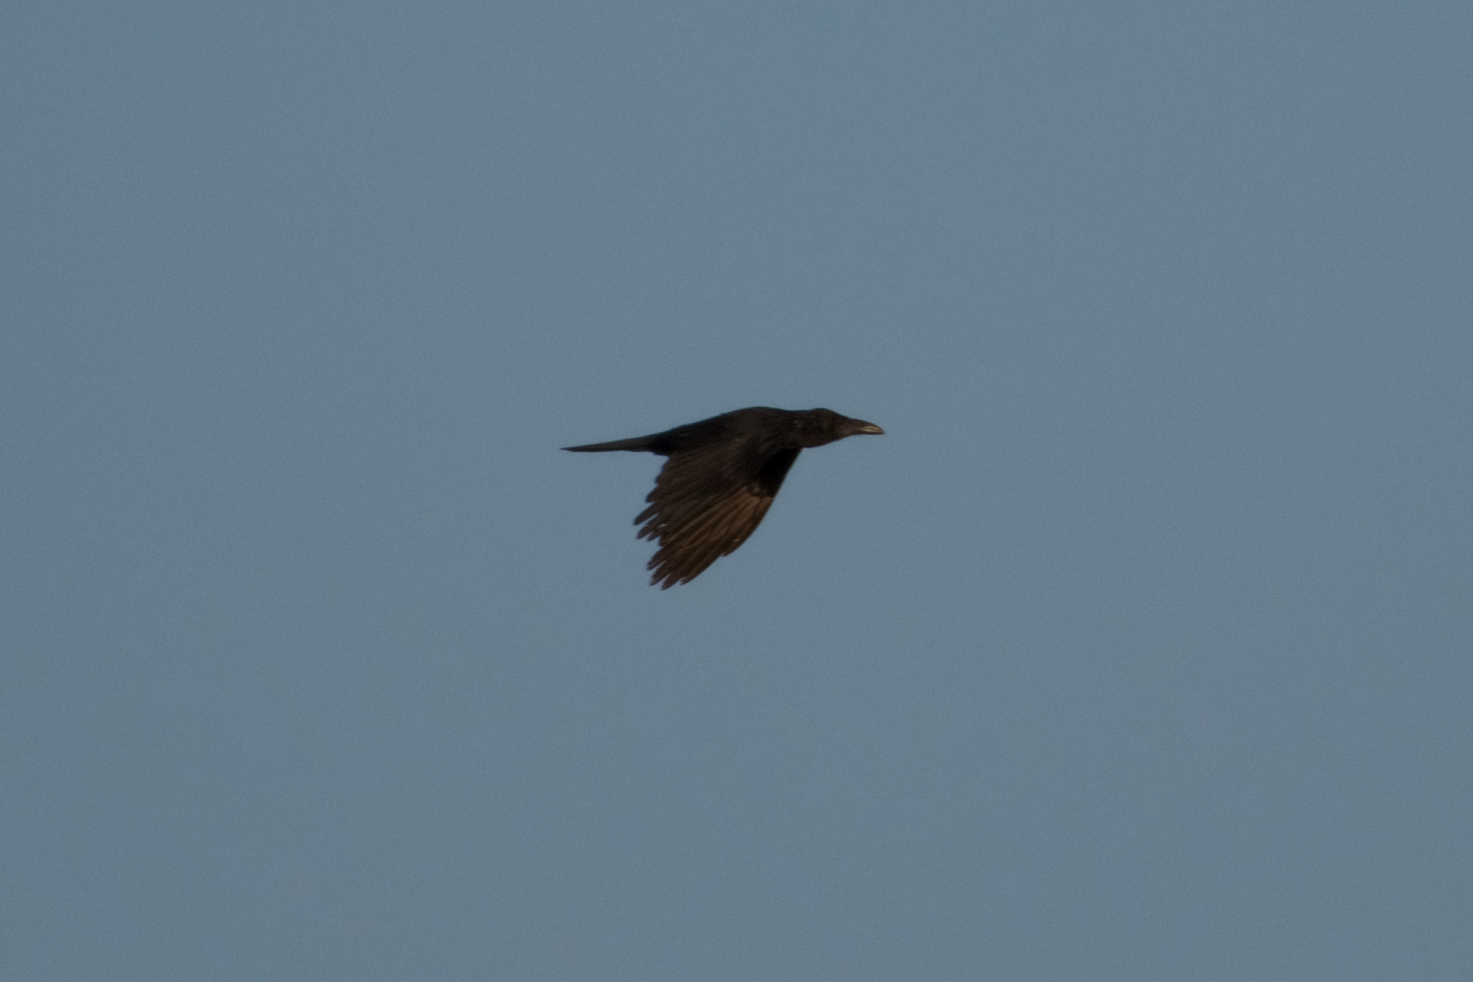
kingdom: Animalia
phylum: Chordata
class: Aves
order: Passeriformes
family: Corvidae
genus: Corvus
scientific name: Corvus corax
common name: Common raven
